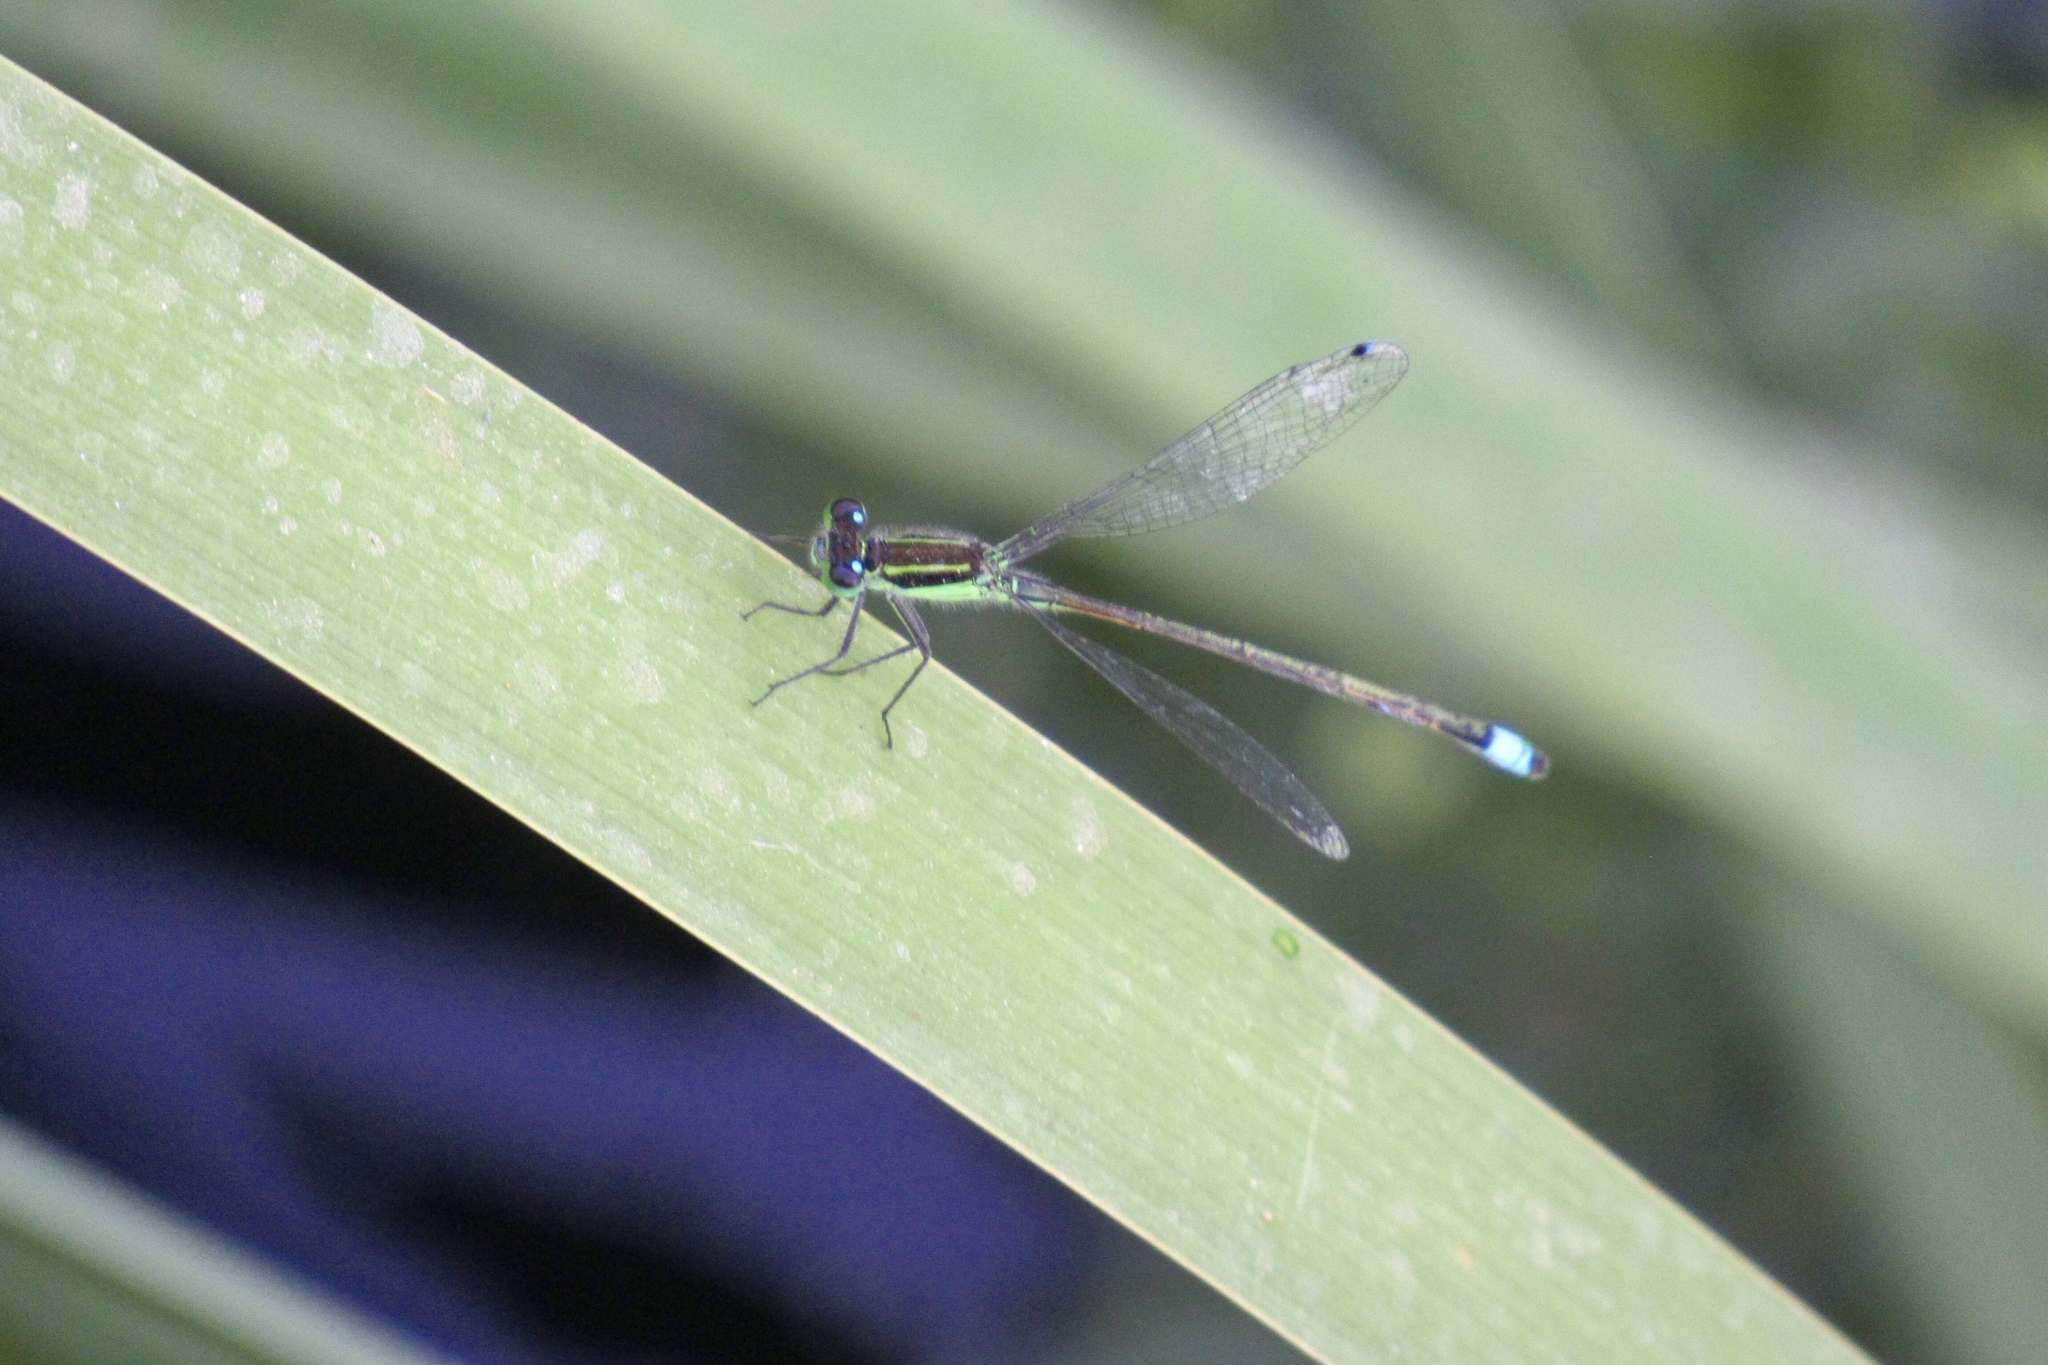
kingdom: Animalia
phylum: Arthropoda
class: Insecta
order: Odonata
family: Coenagrionidae
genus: Ischnura
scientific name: Ischnura ramburii
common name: Rambur's forktail
